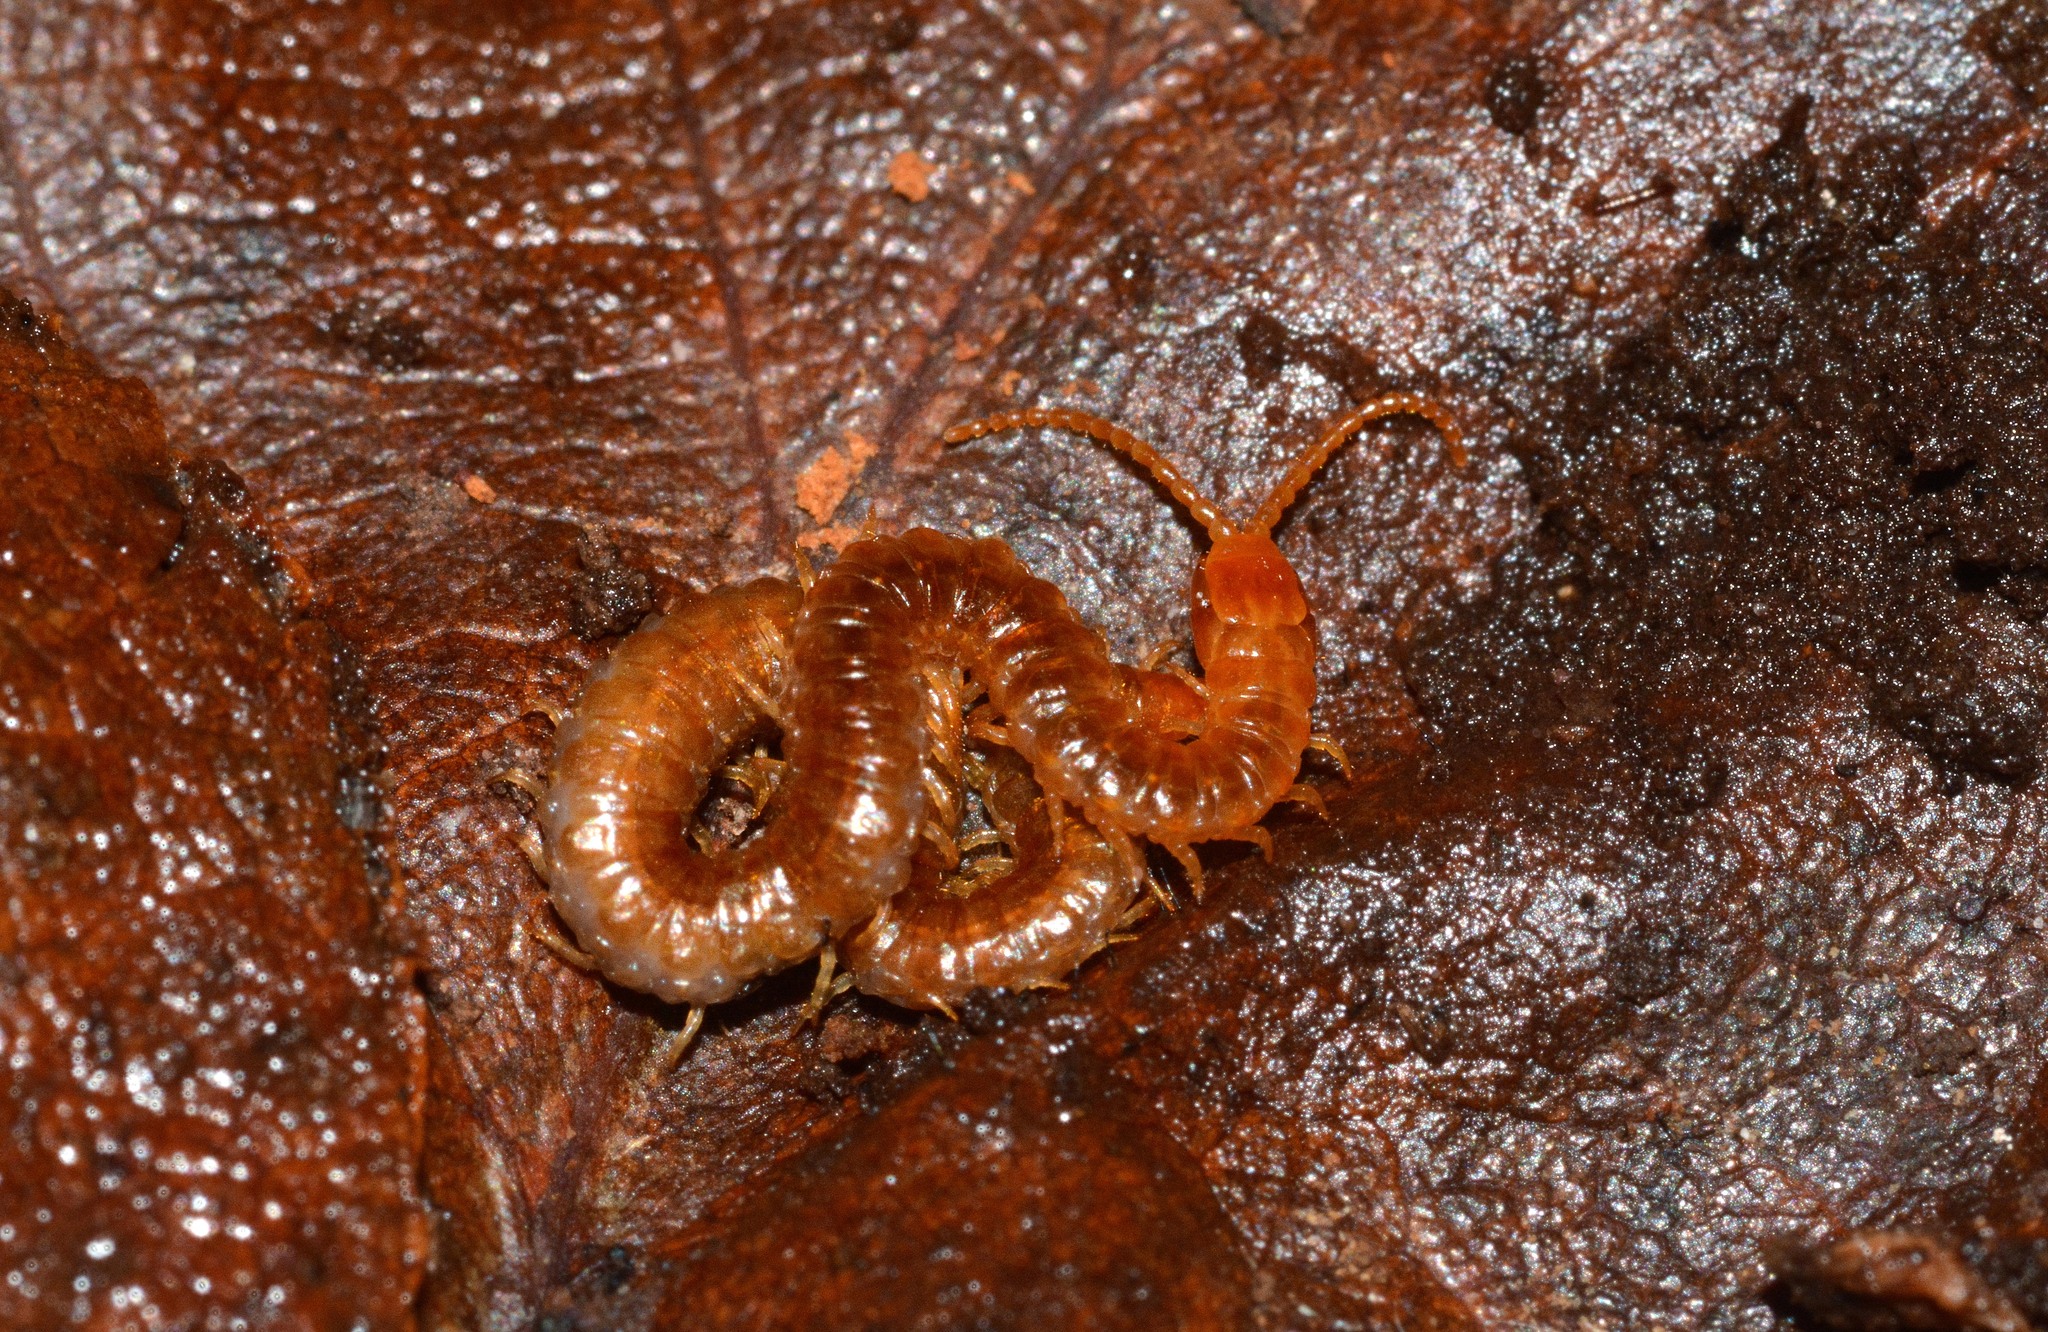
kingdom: Animalia
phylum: Arthropoda
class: Chilopoda
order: Geophilomorpha
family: Geophilidae
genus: Geophilus
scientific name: Geophilus easoni
